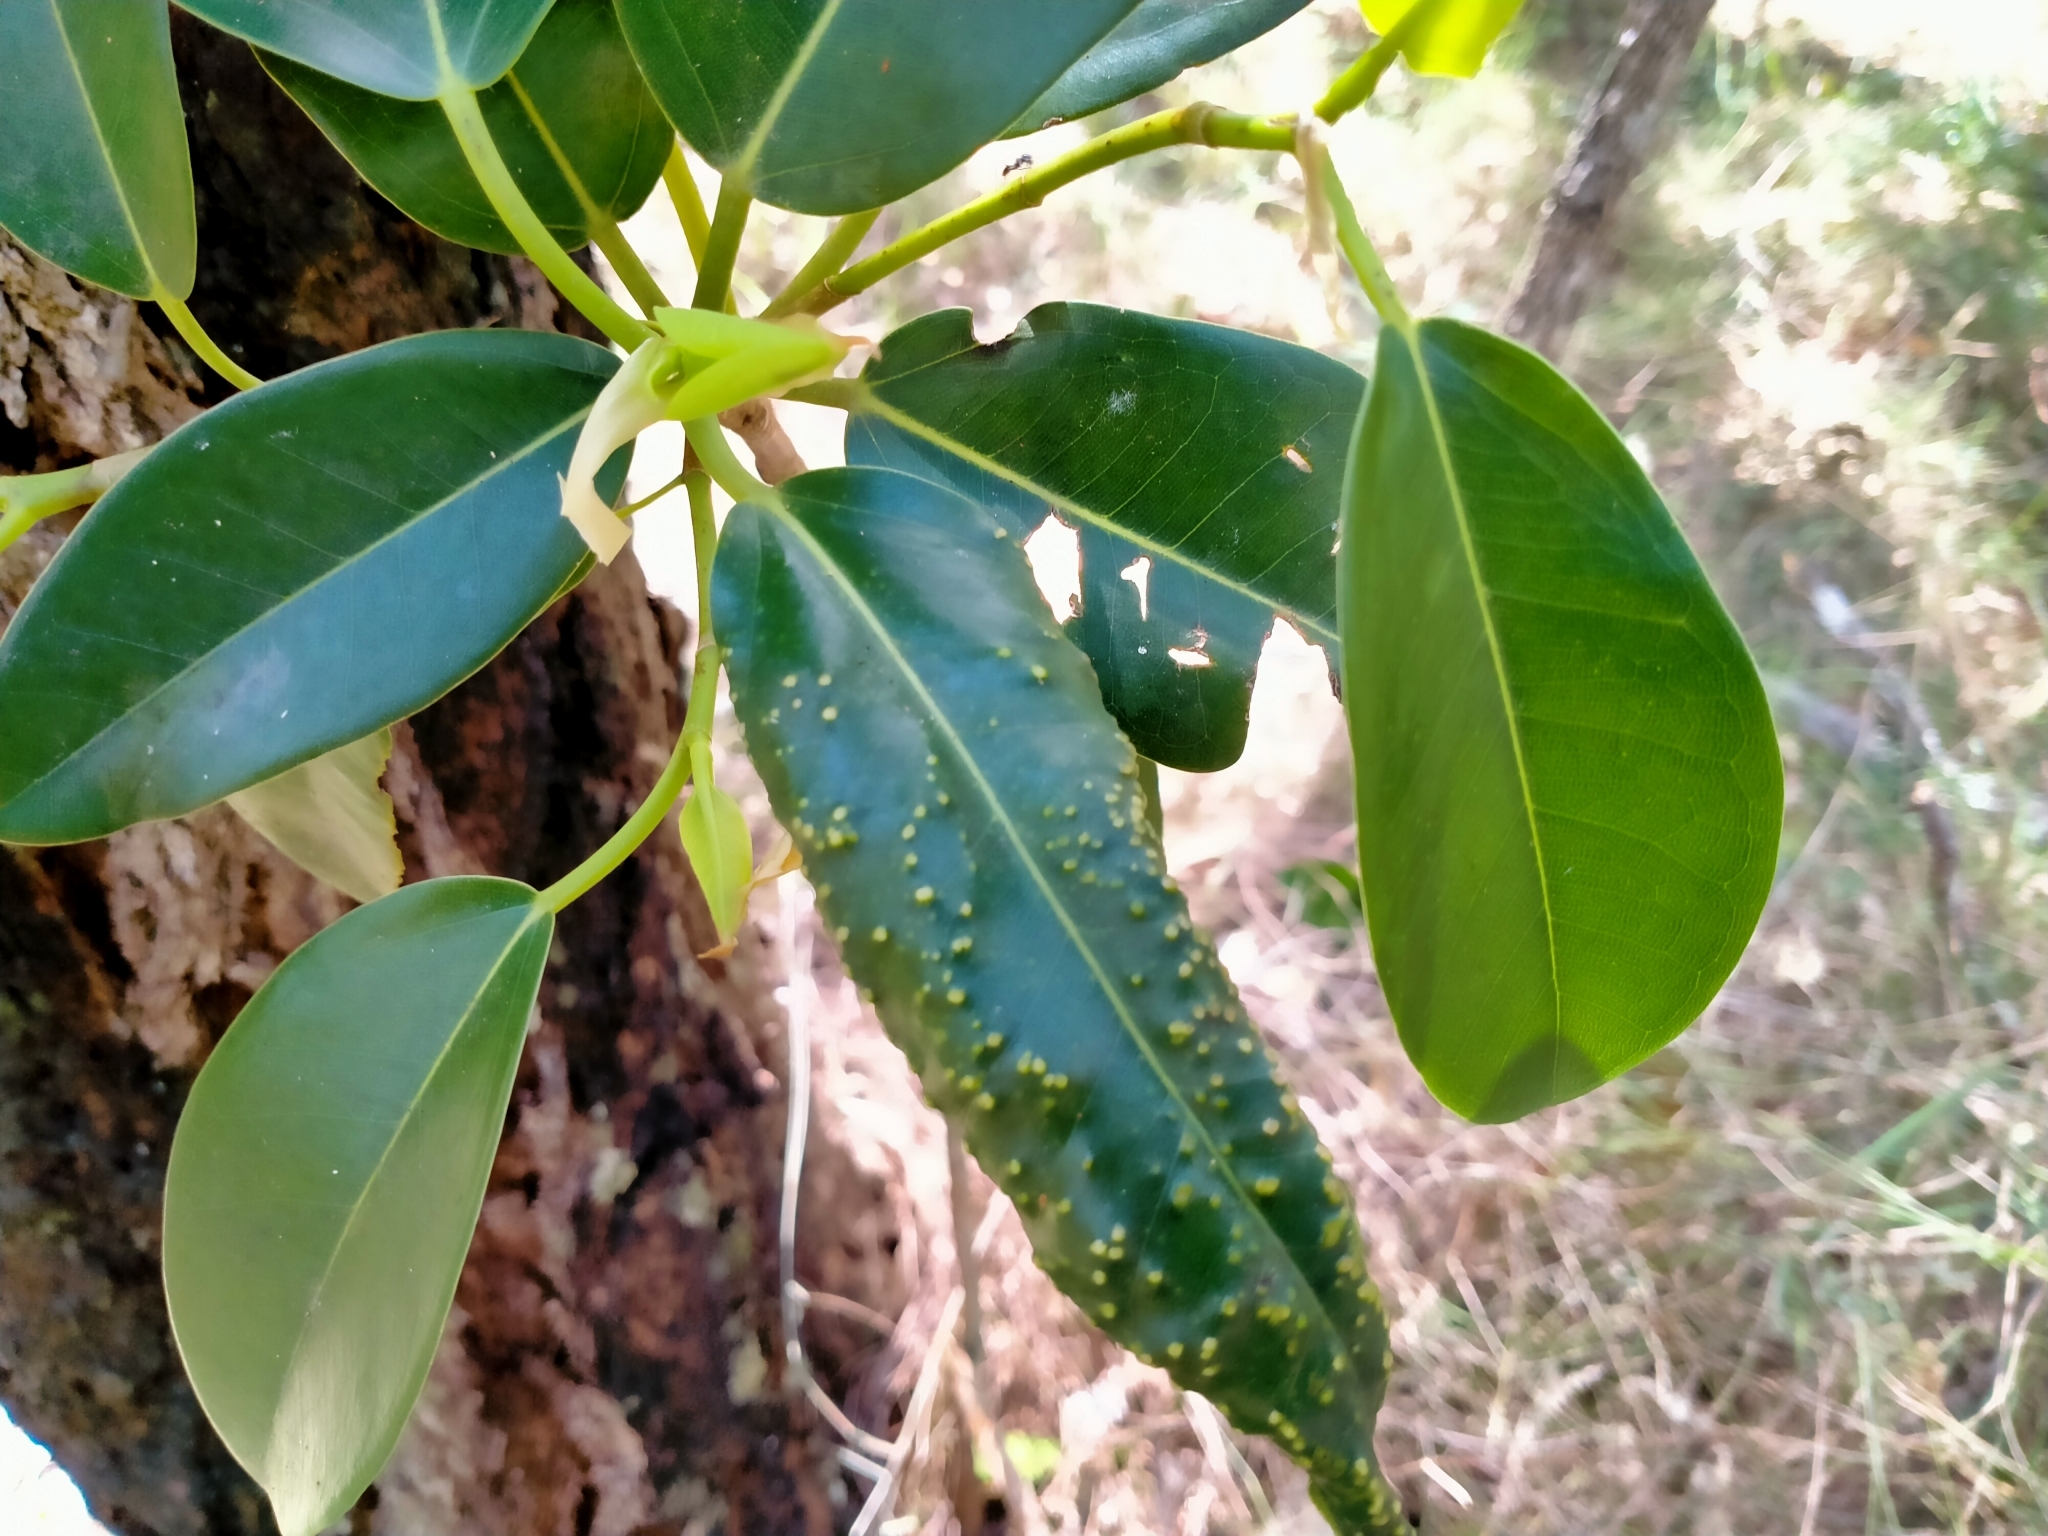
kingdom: Plantae
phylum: Tracheophyta
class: Magnoliopsida
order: Rosales
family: Moraceae
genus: Ficus
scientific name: Ficus rubiginosa
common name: Port jackson fig
